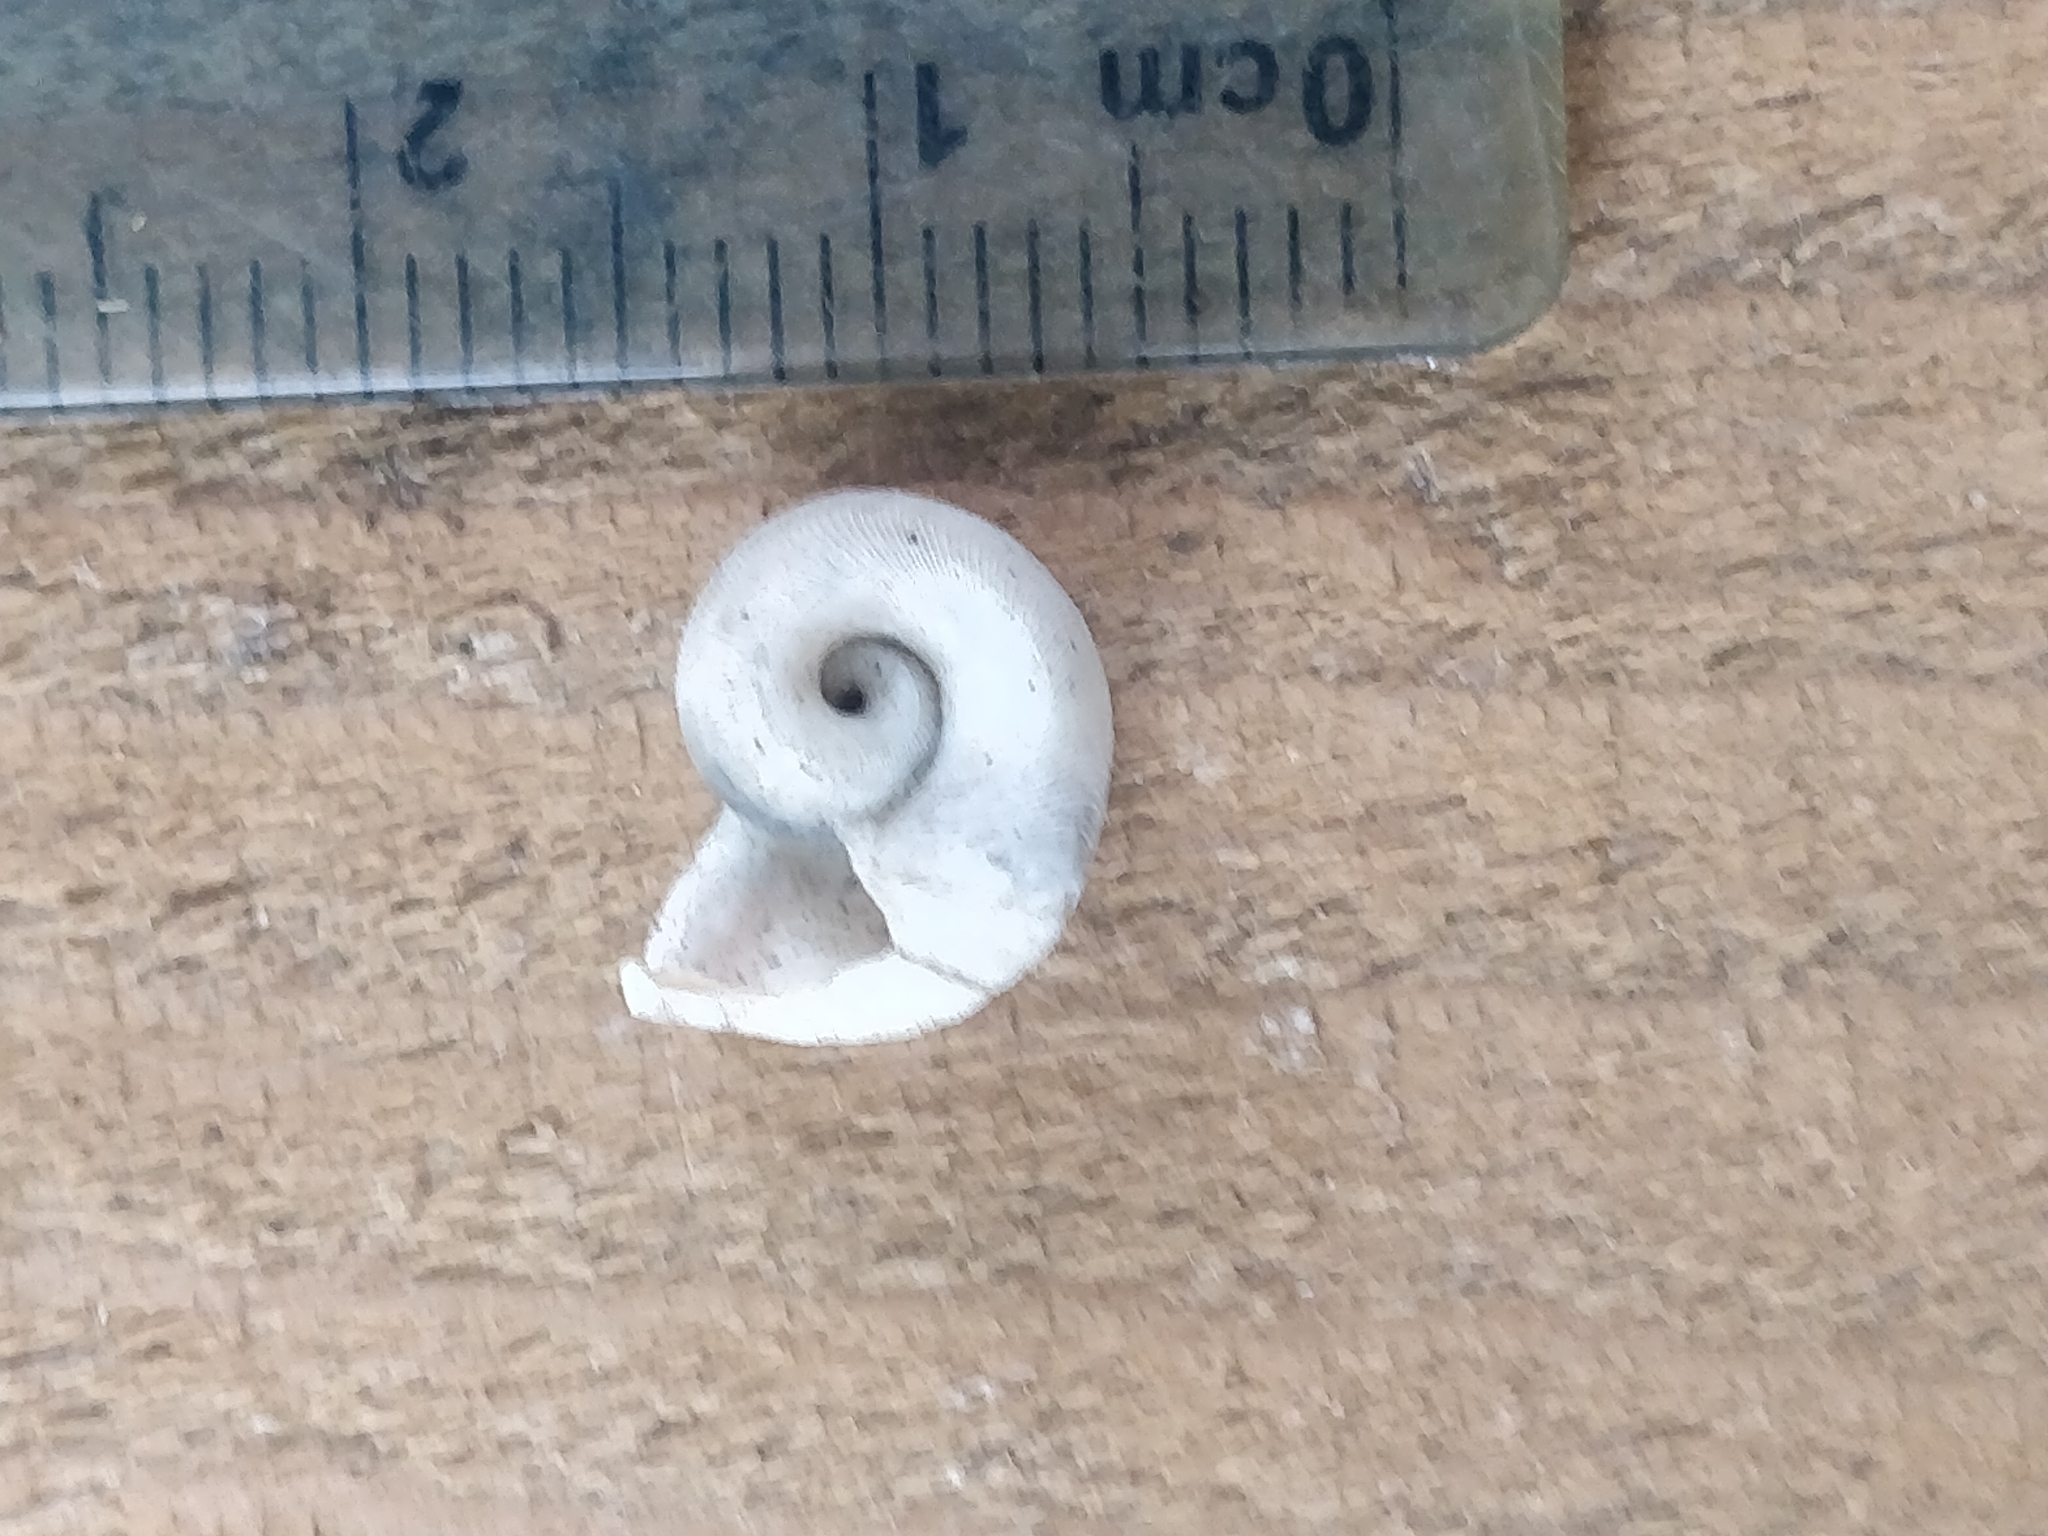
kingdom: Animalia
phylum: Mollusca
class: Gastropoda
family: Planorbidae
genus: Planorbella
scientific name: Planorbella trivolvis
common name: Marsh rams-horn
